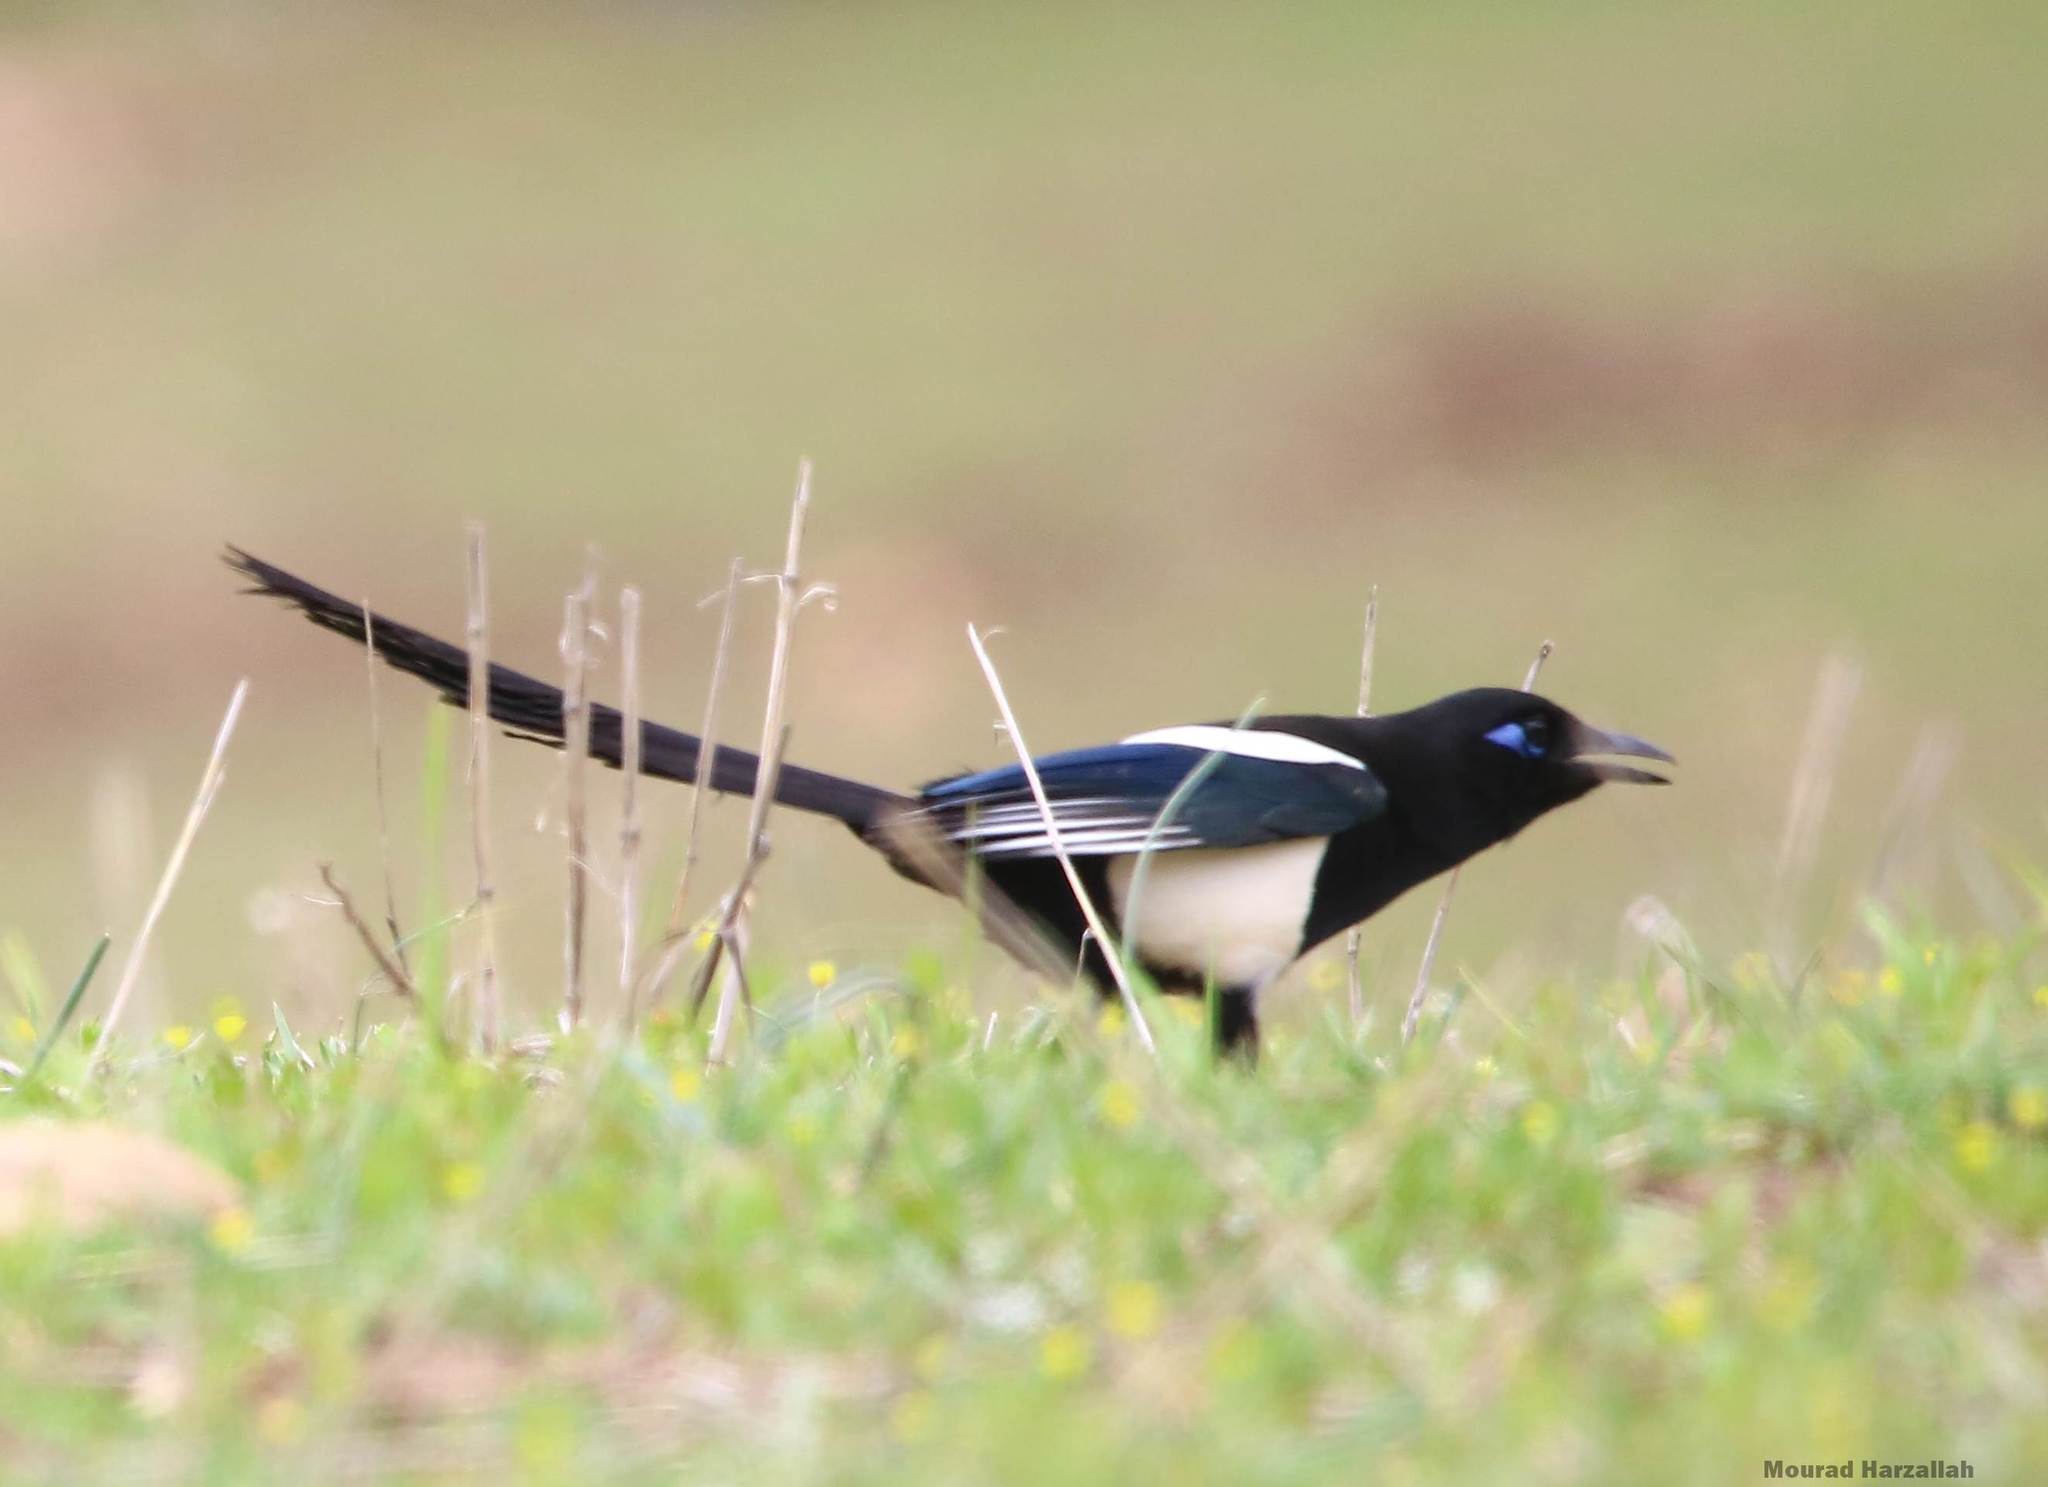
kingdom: Animalia
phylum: Chordata
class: Aves
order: Passeriformes
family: Corvidae
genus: Pica
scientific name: Pica mauritanica
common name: Maghreb magpie
